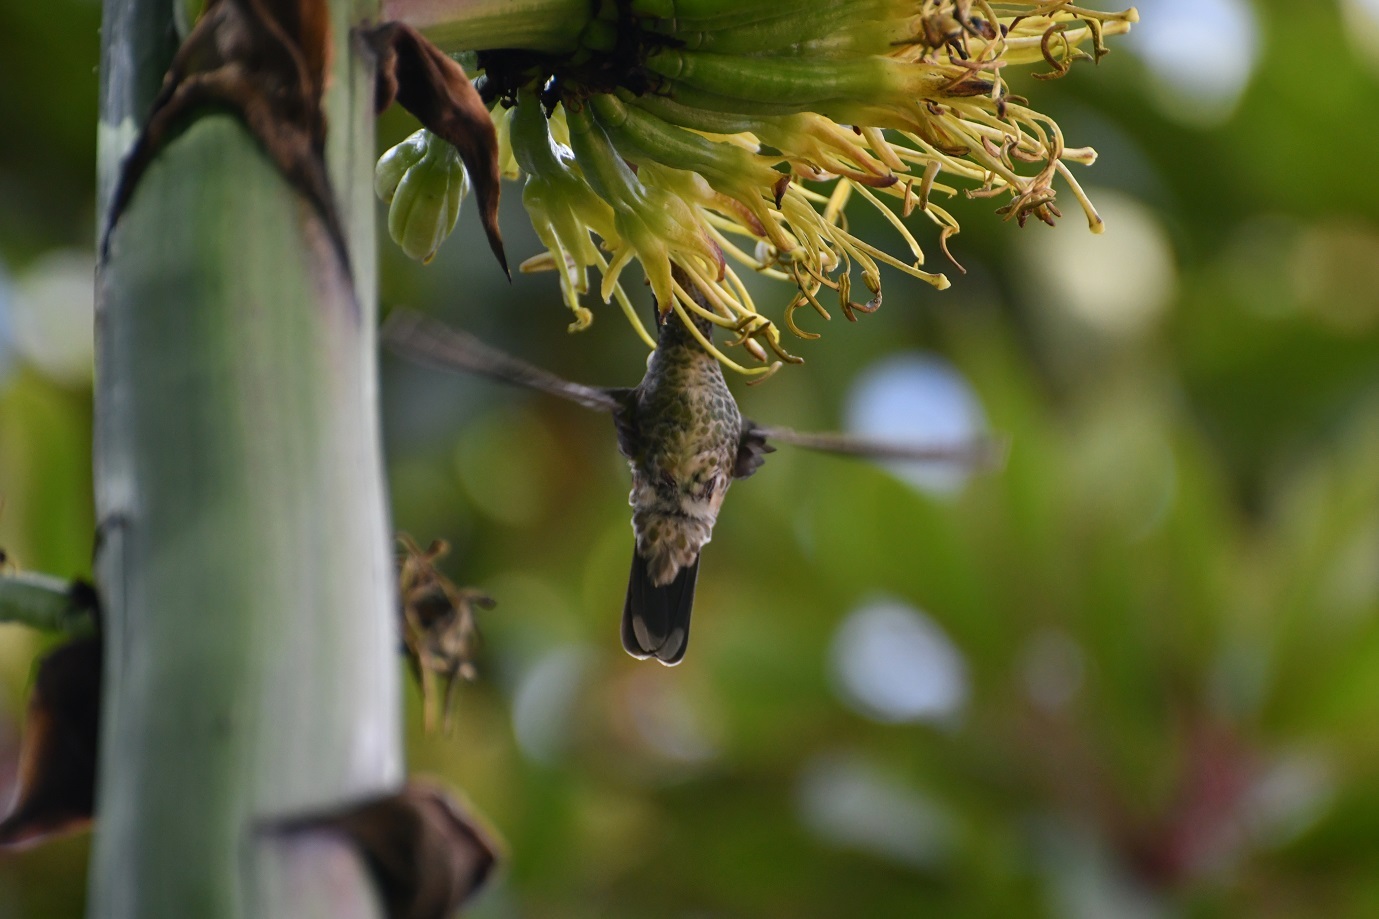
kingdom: Animalia
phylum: Chordata
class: Aves
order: Apodiformes
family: Trochilidae
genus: Basilinna
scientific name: Basilinna leucotis
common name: White-eared hummingbird
